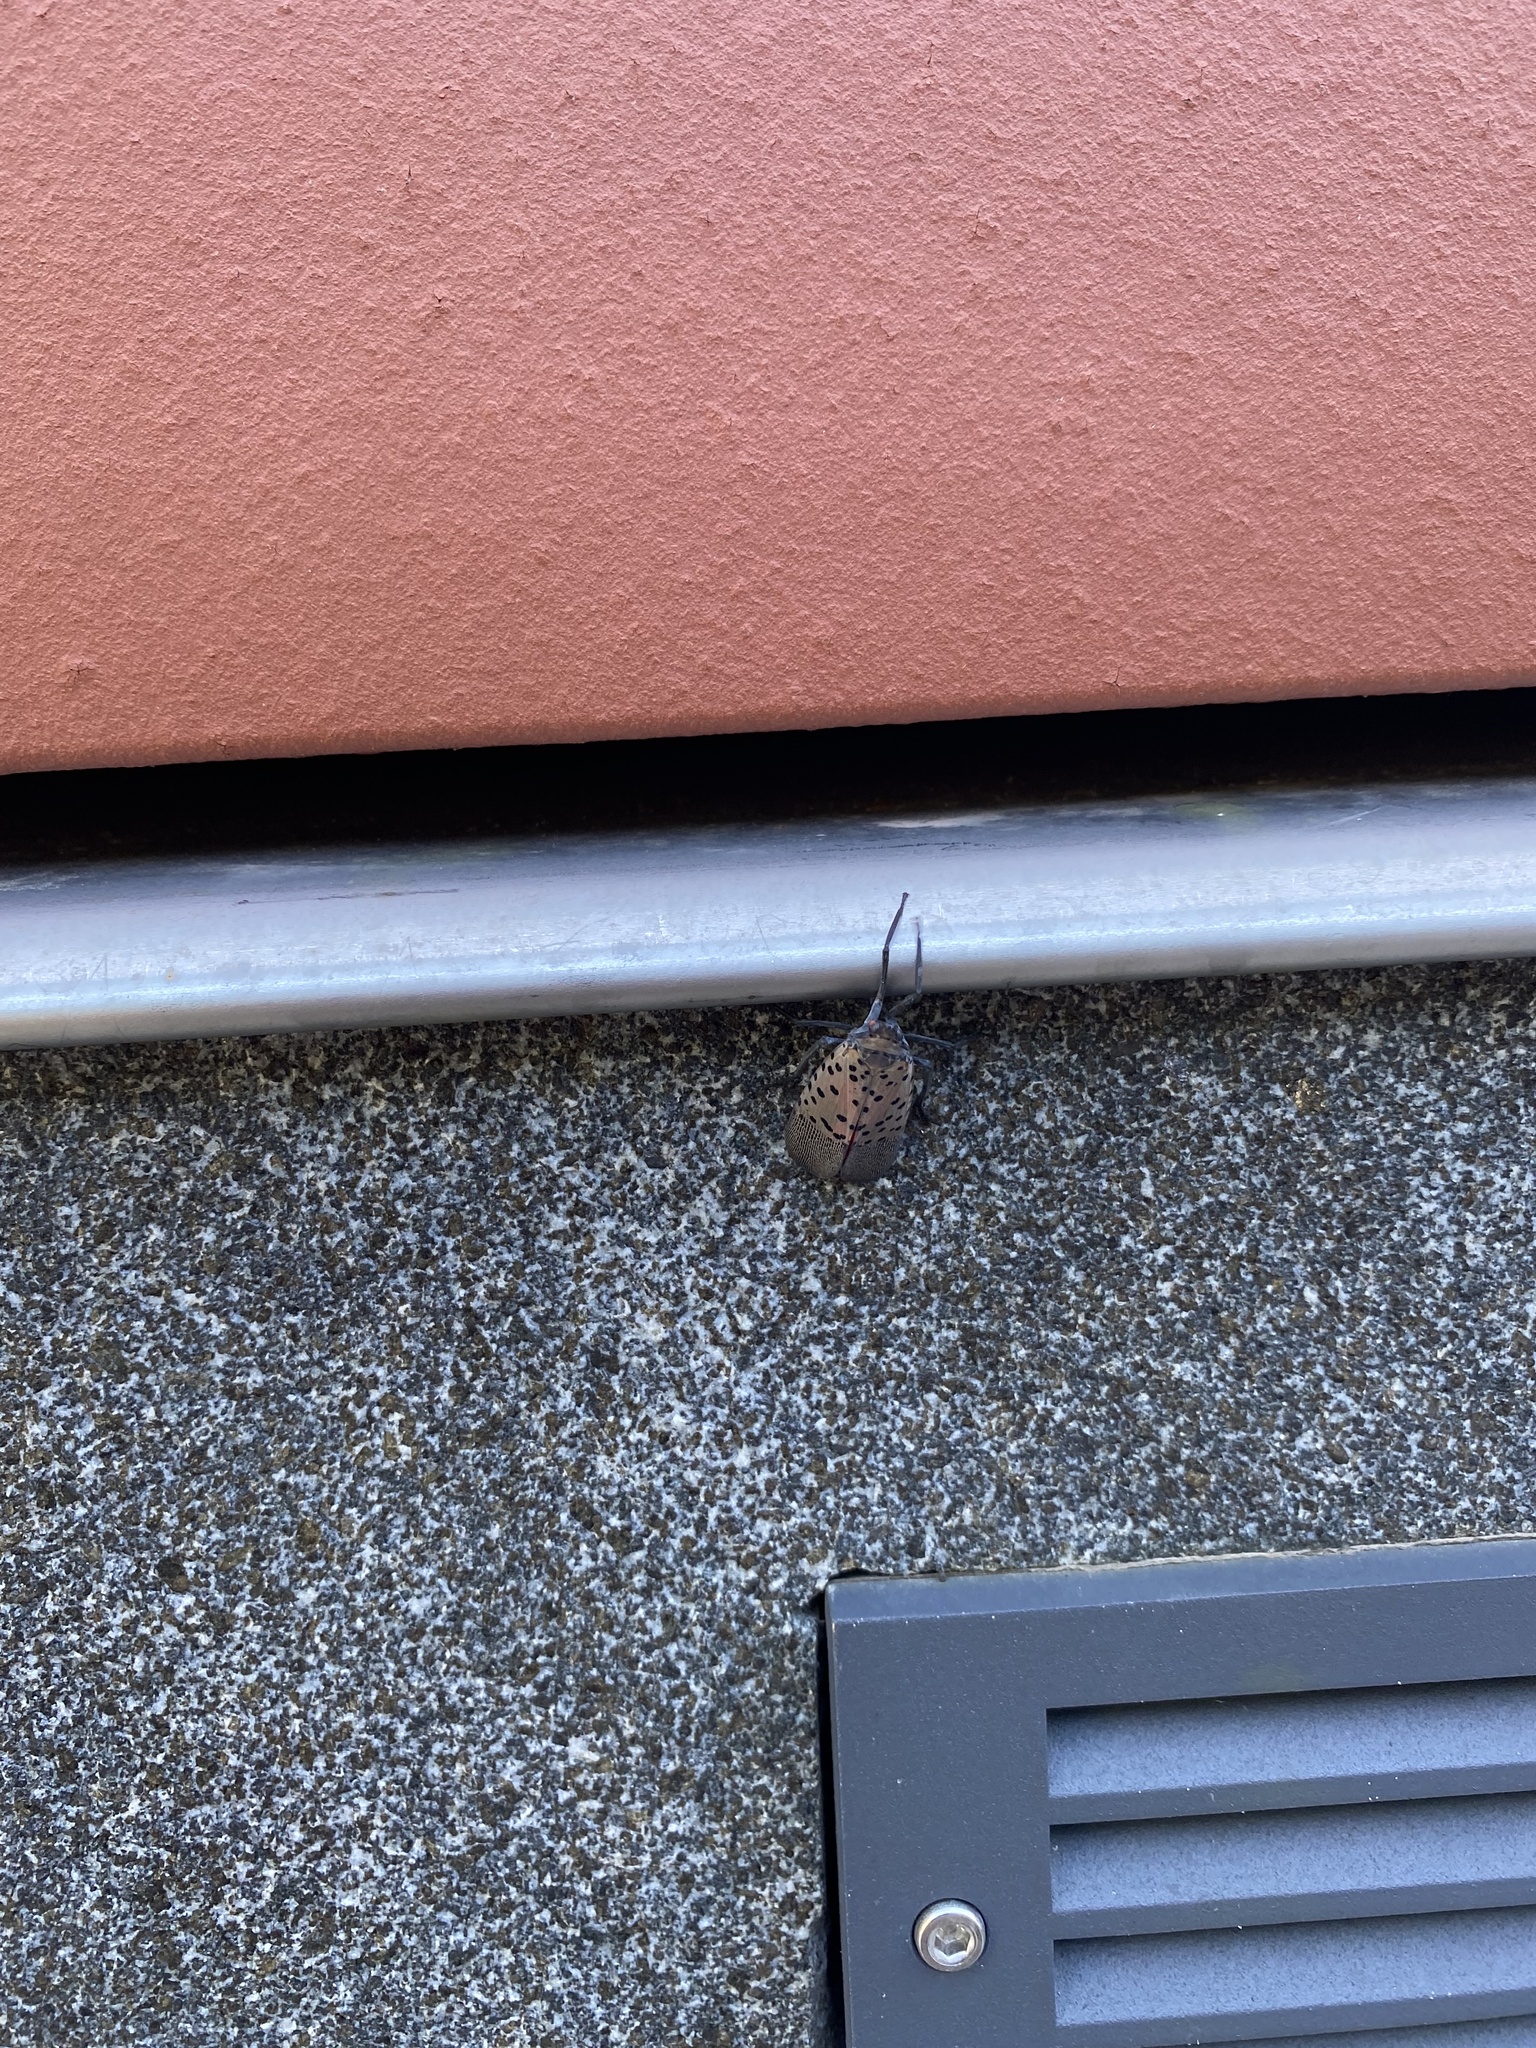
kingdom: Animalia
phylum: Arthropoda
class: Insecta
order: Hemiptera
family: Fulgoridae
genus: Lycorma
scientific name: Lycorma delicatula
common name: Spotted lanternfly
